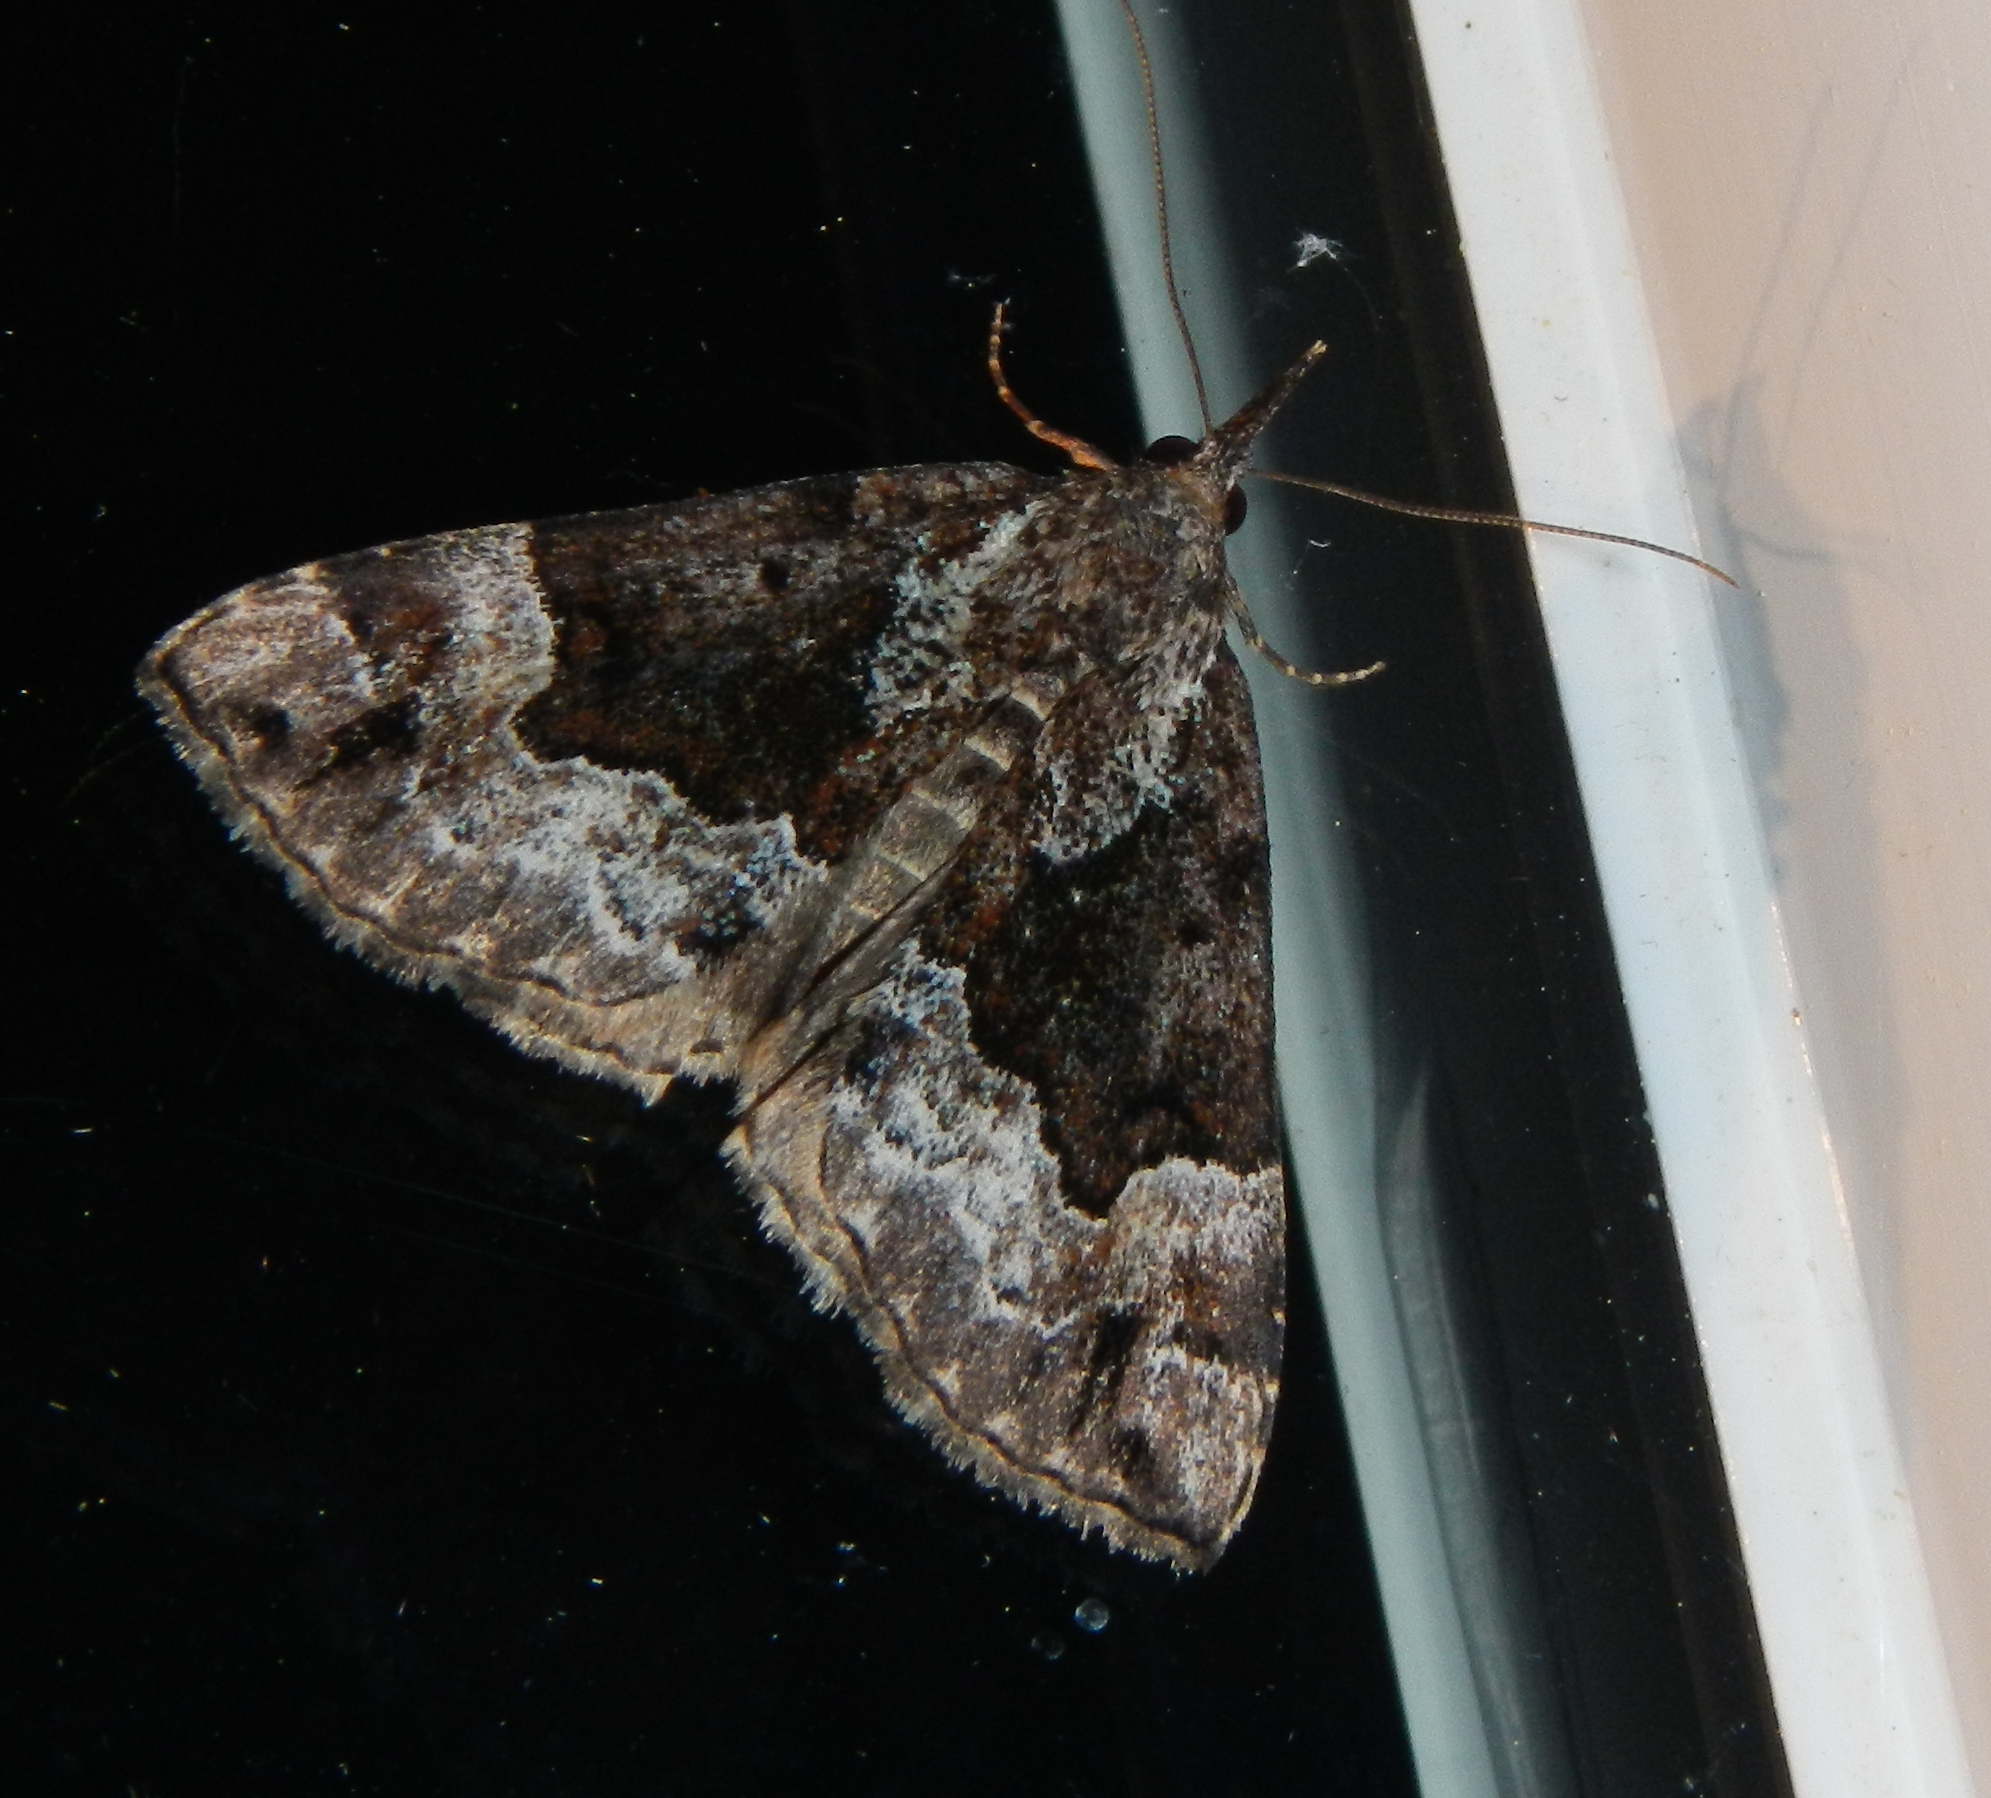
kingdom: Animalia
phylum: Arthropoda
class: Insecta
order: Lepidoptera
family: Erebidae
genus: Hypena
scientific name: Hypena palparia
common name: Mottled bomolocha moth
